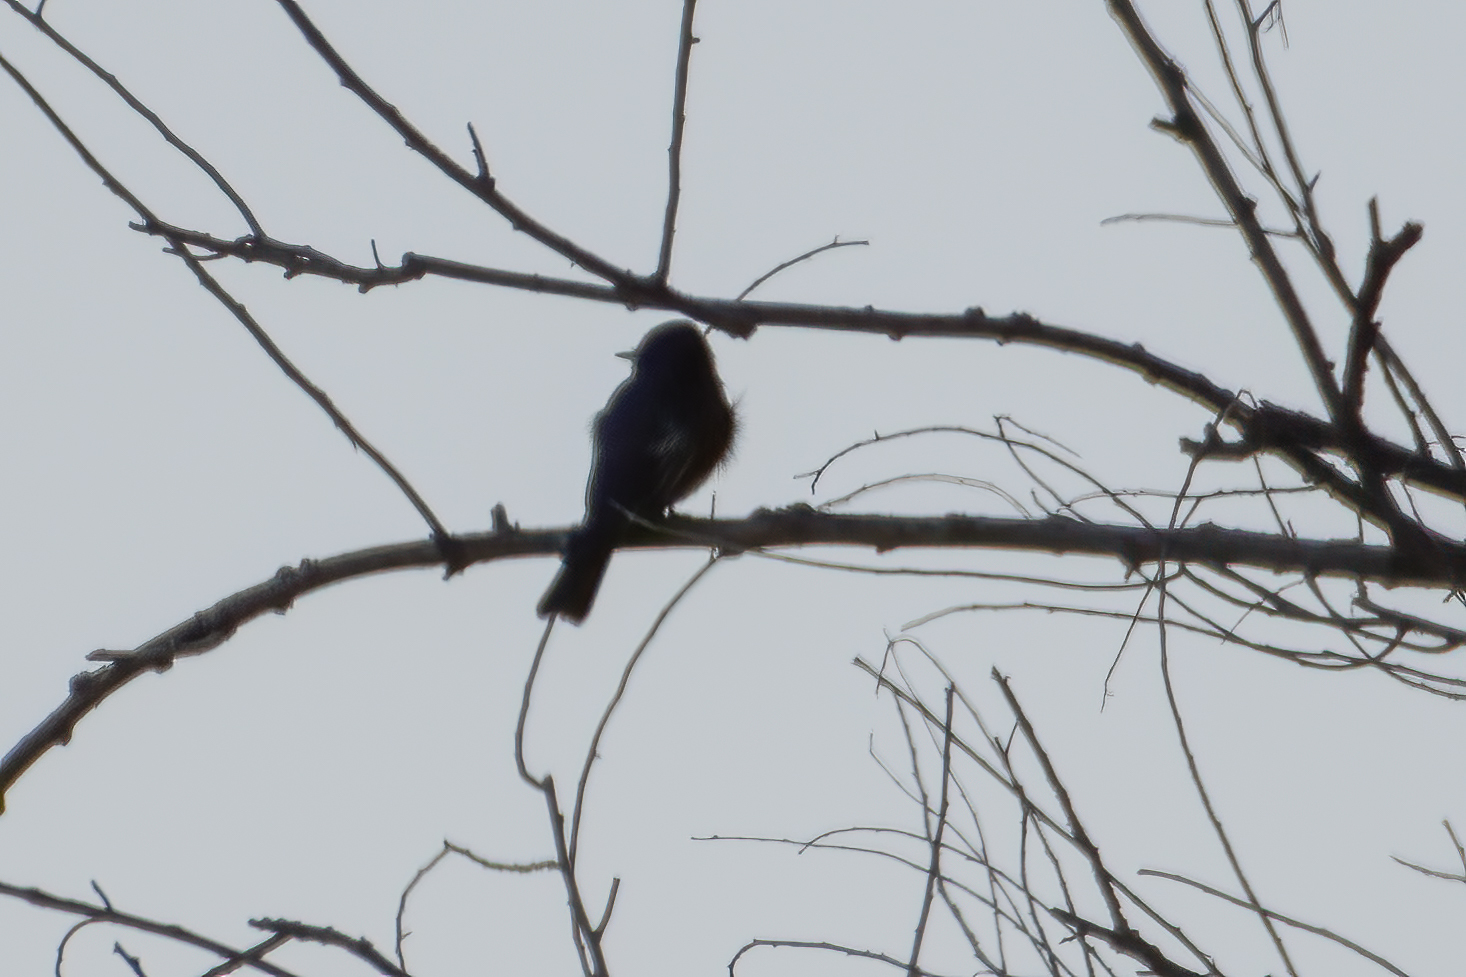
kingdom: Animalia
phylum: Chordata
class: Aves
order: Passeriformes
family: Tyrannidae
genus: Sayornis
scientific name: Sayornis nigricans
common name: Black phoebe
